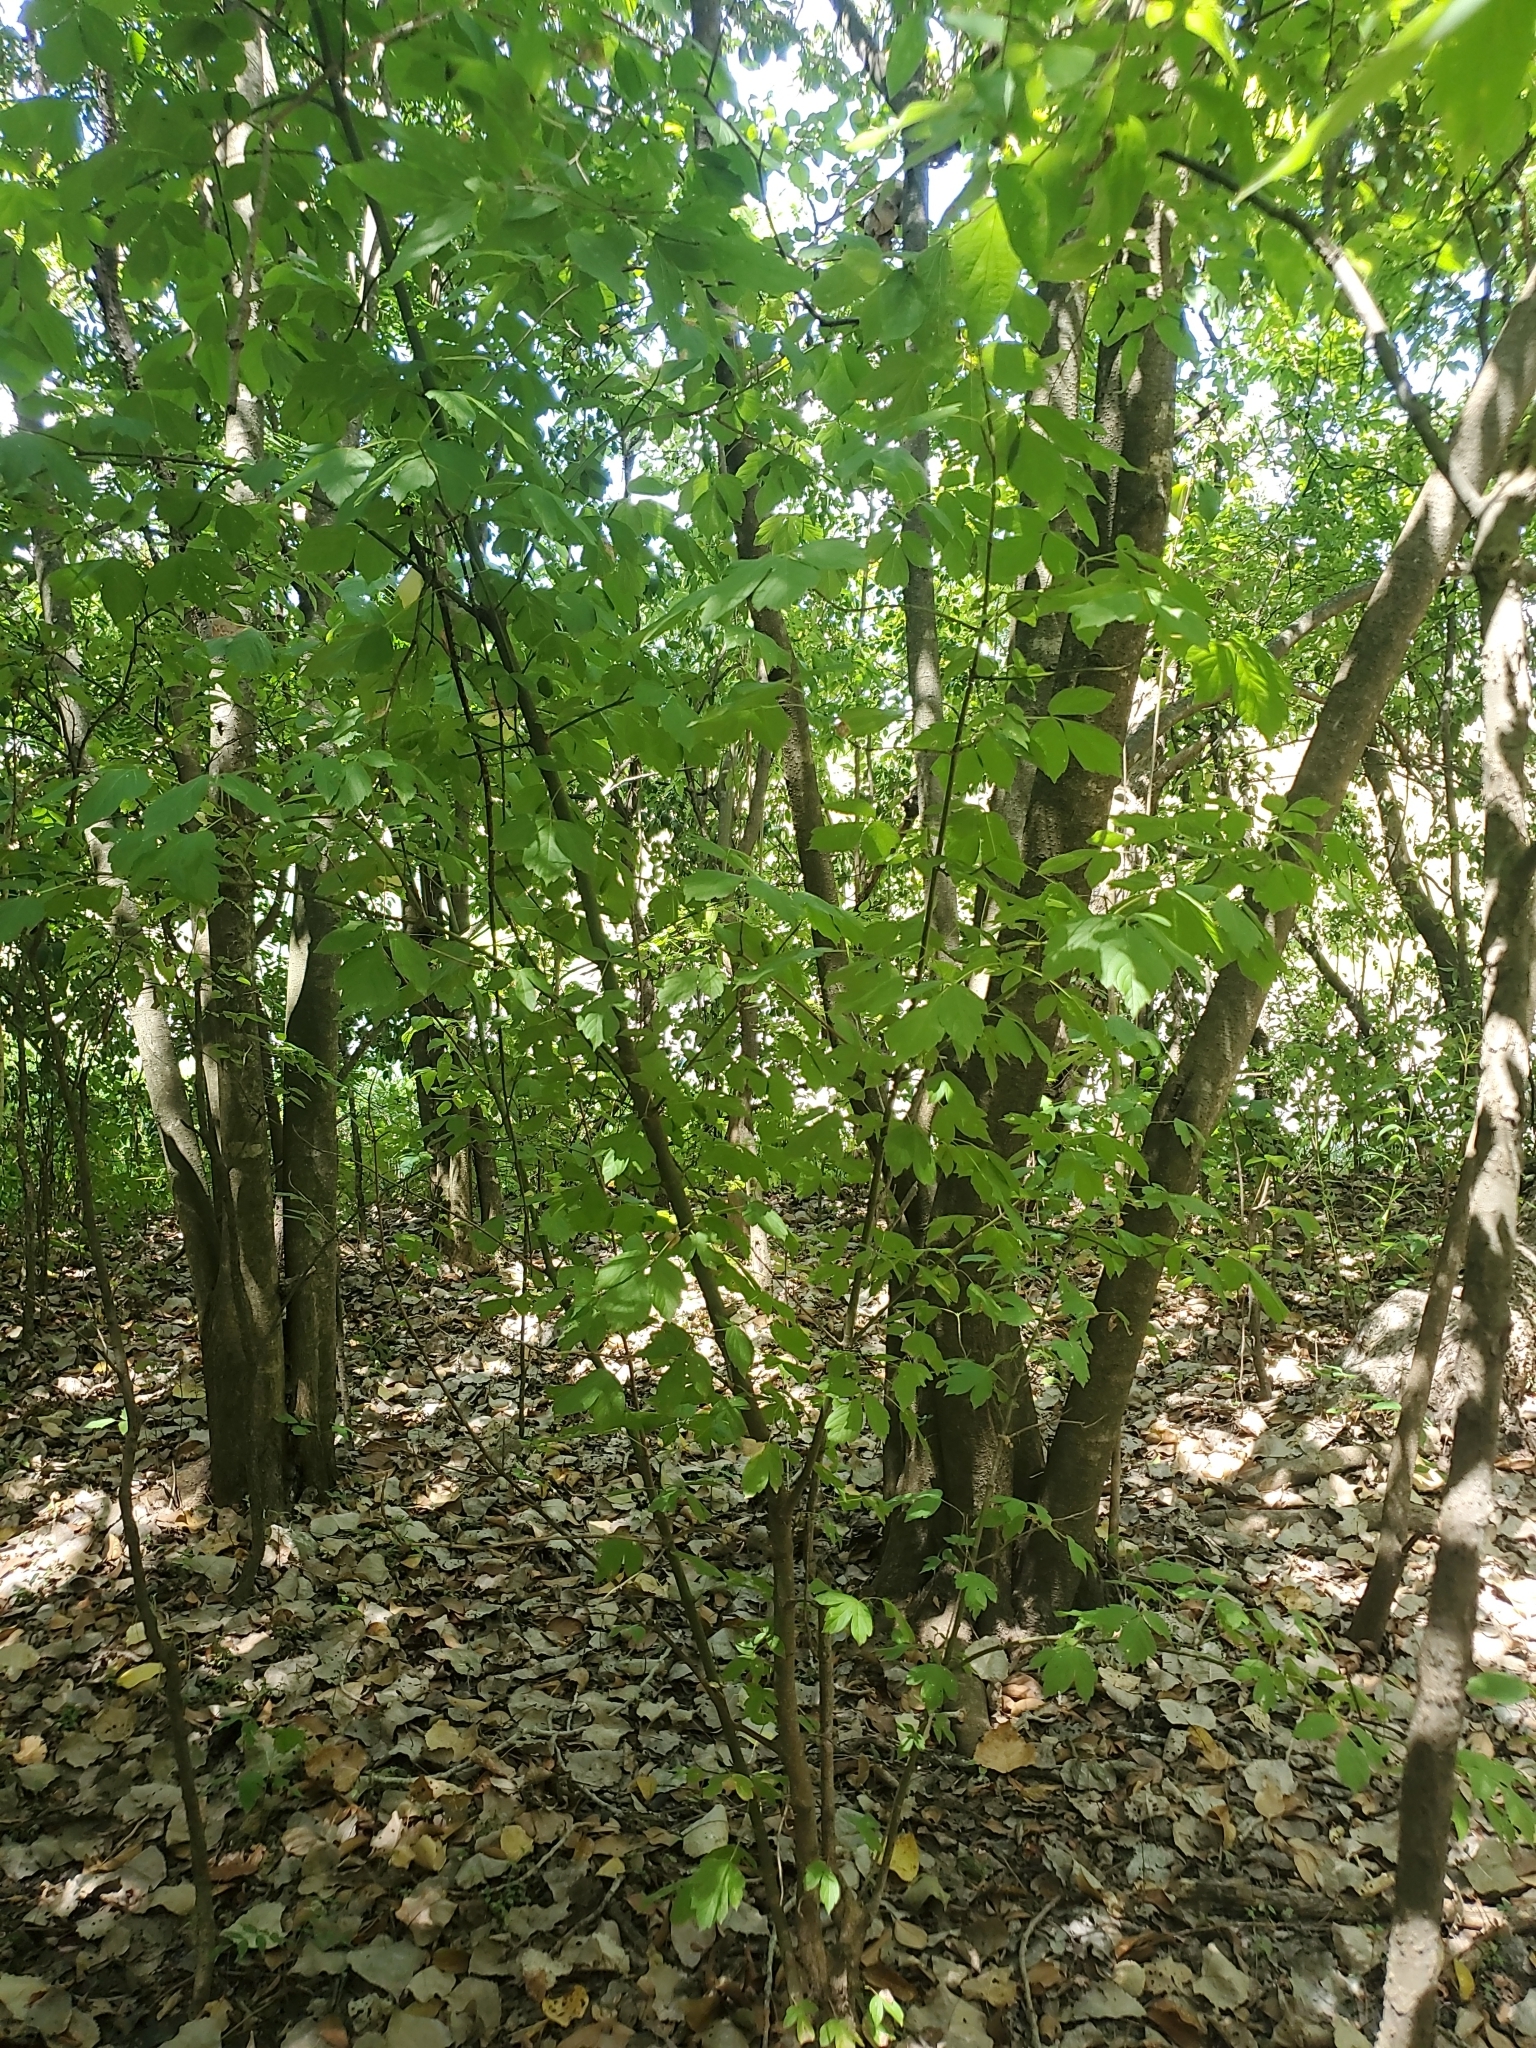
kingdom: Plantae
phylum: Tracheophyta
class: Magnoliopsida
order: Sapindales
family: Sapindaceae
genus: Acer
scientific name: Acer negundo
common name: Ashleaf maple
